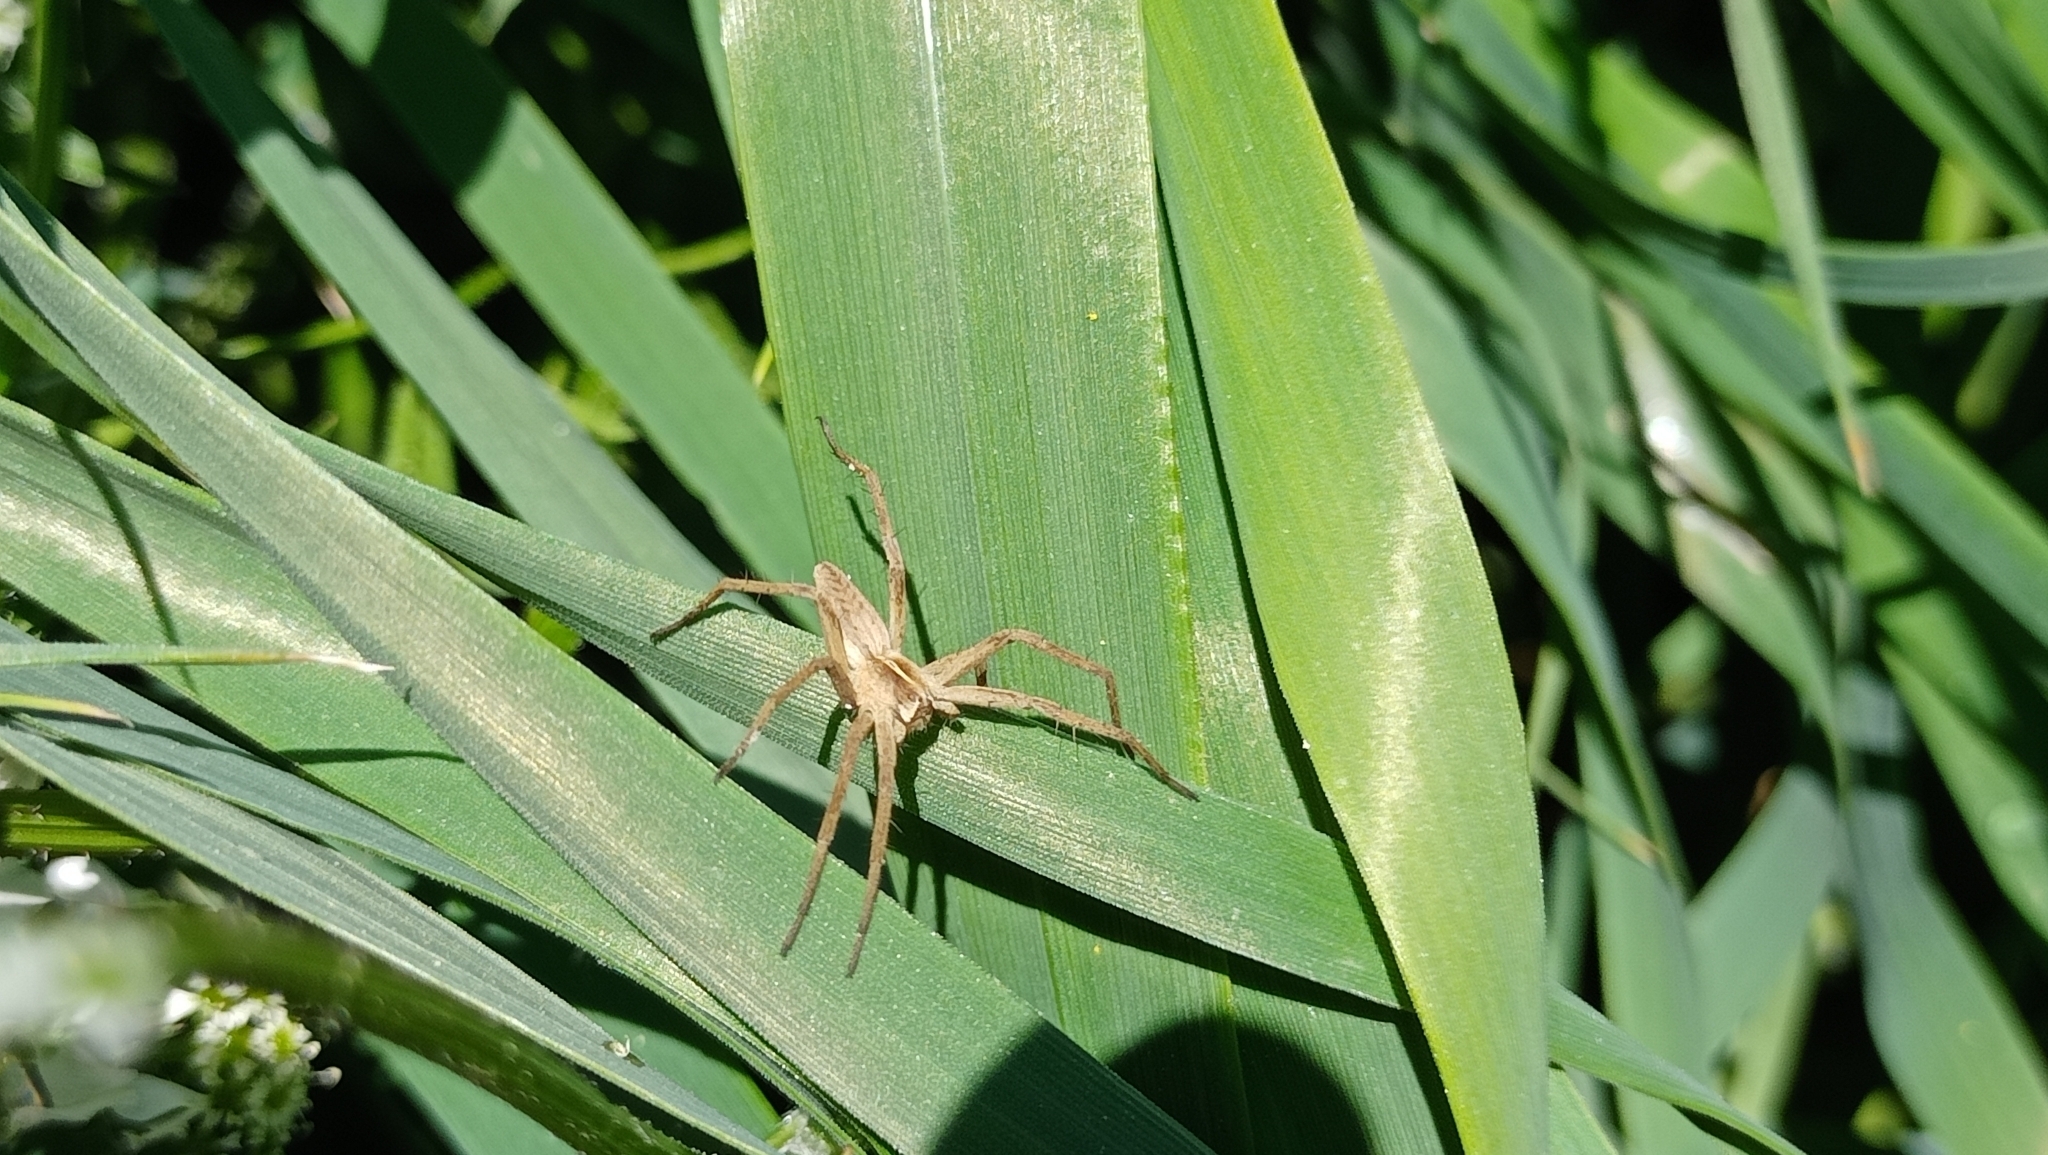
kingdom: Animalia
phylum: Arthropoda
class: Arachnida
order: Araneae
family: Pisauridae
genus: Pisaura
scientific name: Pisaura mirabilis
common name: Tent spider
